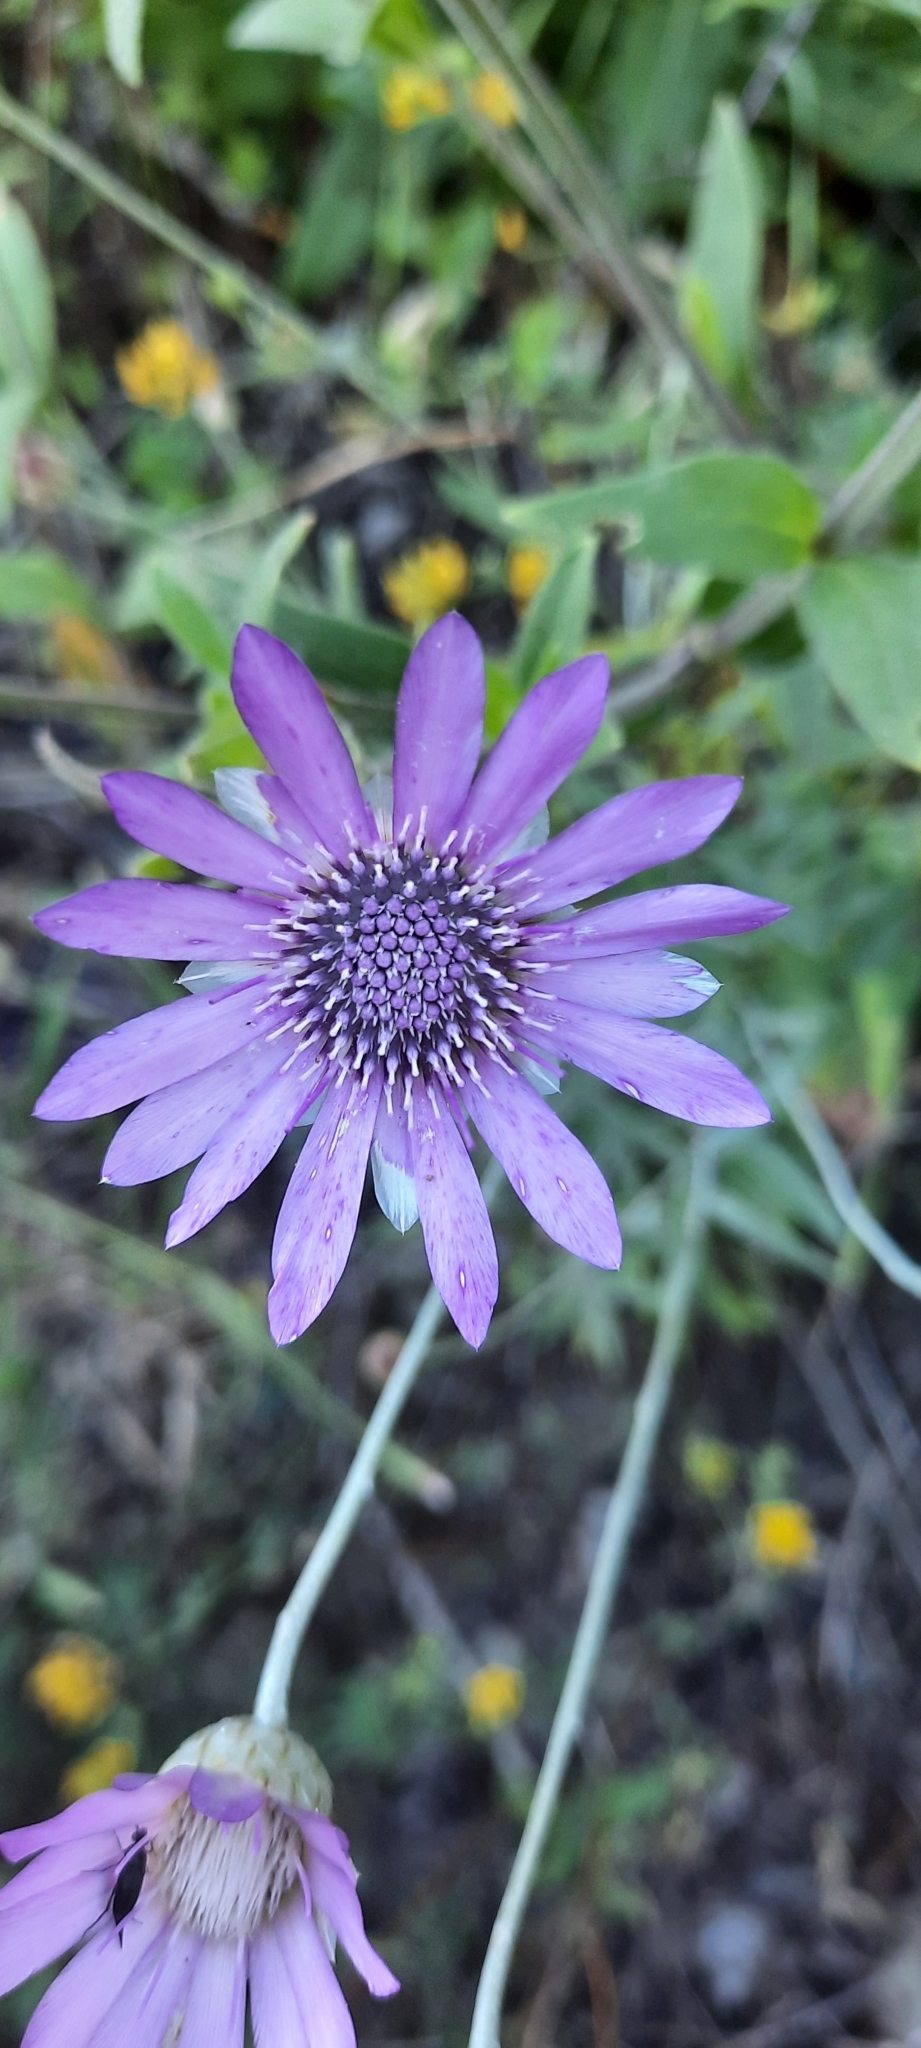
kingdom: Plantae
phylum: Tracheophyta
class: Magnoliopsida
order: Asterales
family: Asteraceae
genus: Xeranthemum
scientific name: Xeranthemum annuum
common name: Immortelle
